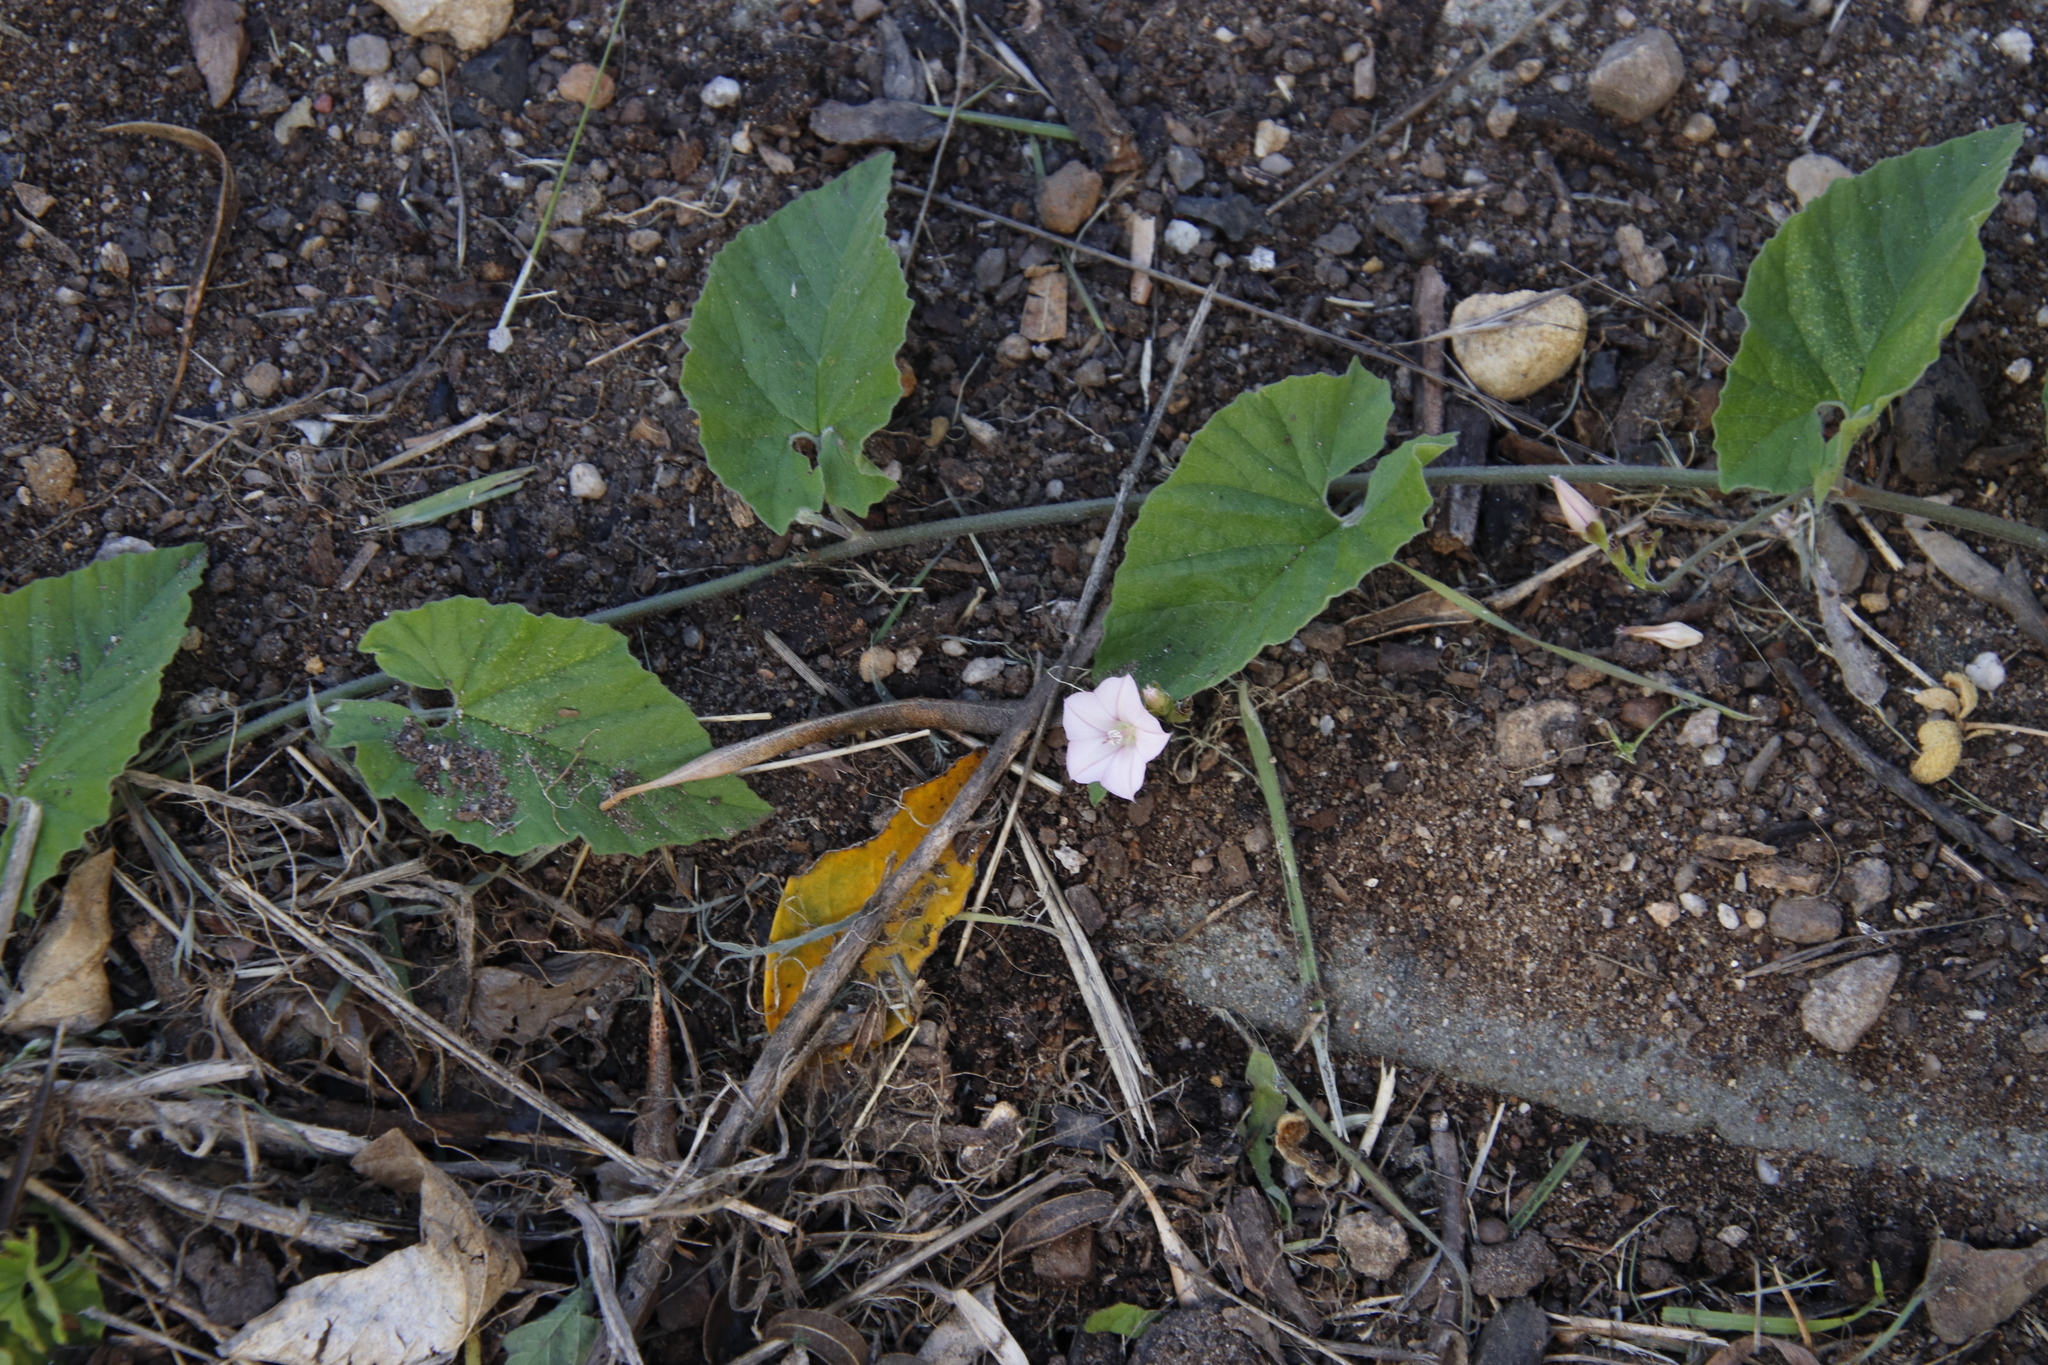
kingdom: Plantae
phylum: Tracheophyta
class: Magnoliopsida
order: Solanales
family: Convolvulaceae
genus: Convolvulus
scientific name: Convolvulus farinosus
